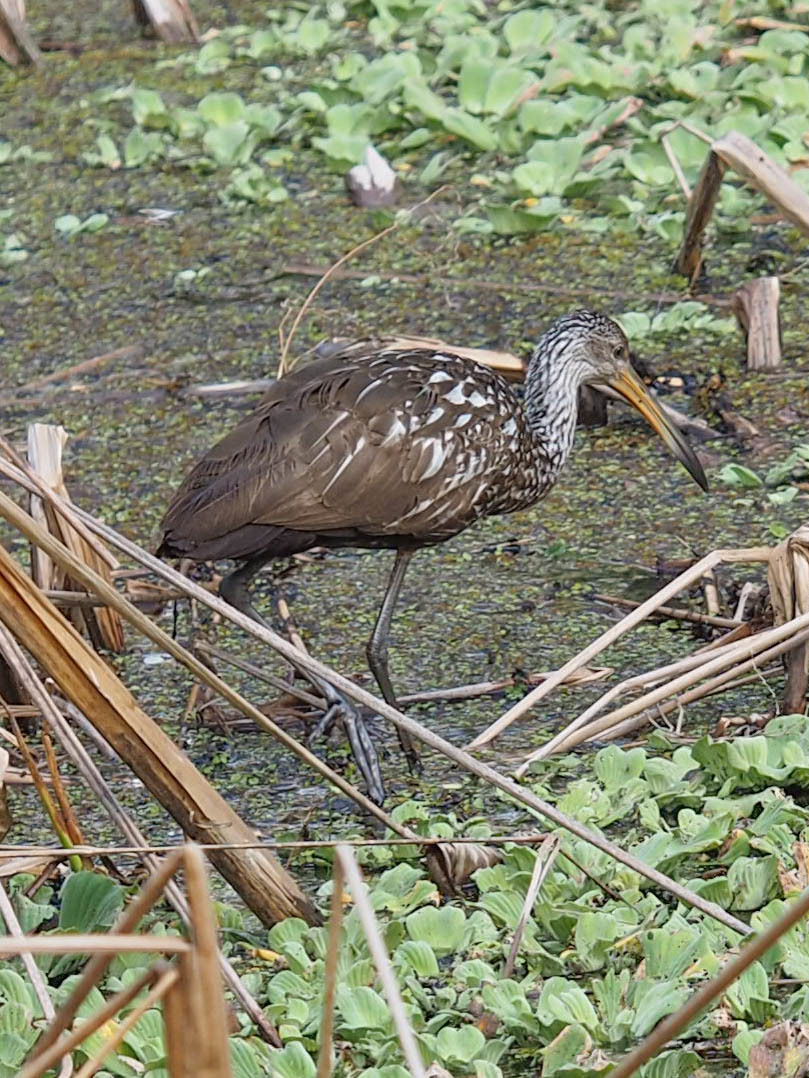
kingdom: Animalia
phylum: Chordata
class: Aves
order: Gruiformes
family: Aramidae
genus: Aramus
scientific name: Aramus guarauna
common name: Limpkin
